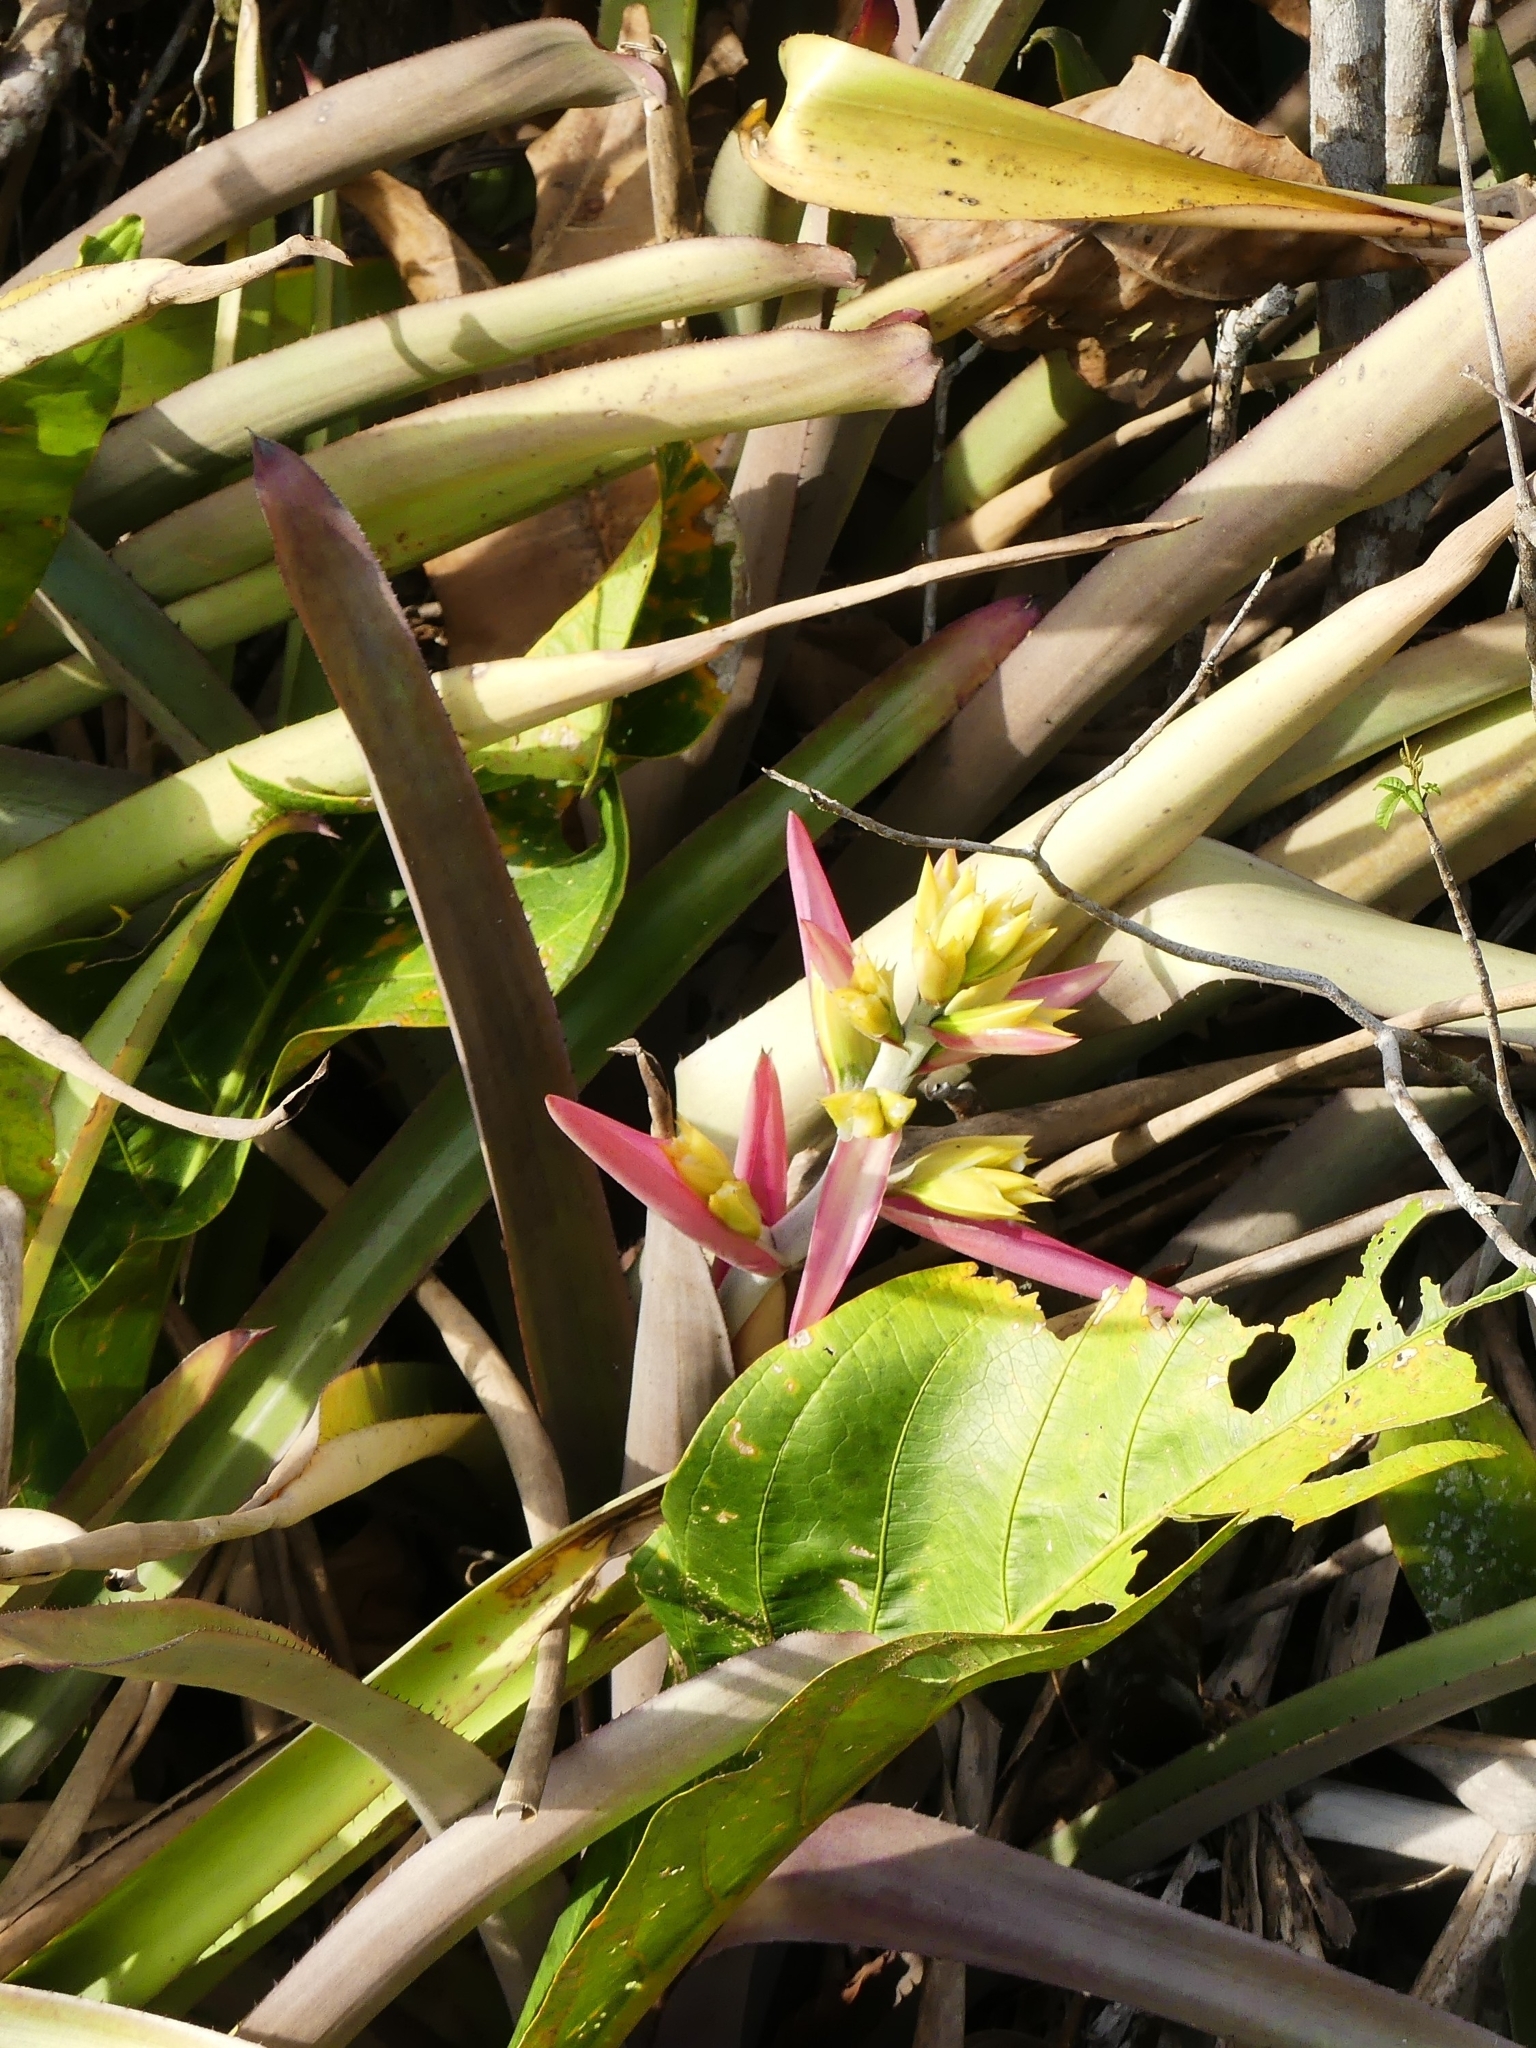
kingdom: Plantae
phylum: Tracheophyta
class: Liliopsida
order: Poales
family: Bromeliaceae
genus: Aechmea
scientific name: Aechmea aquilega
